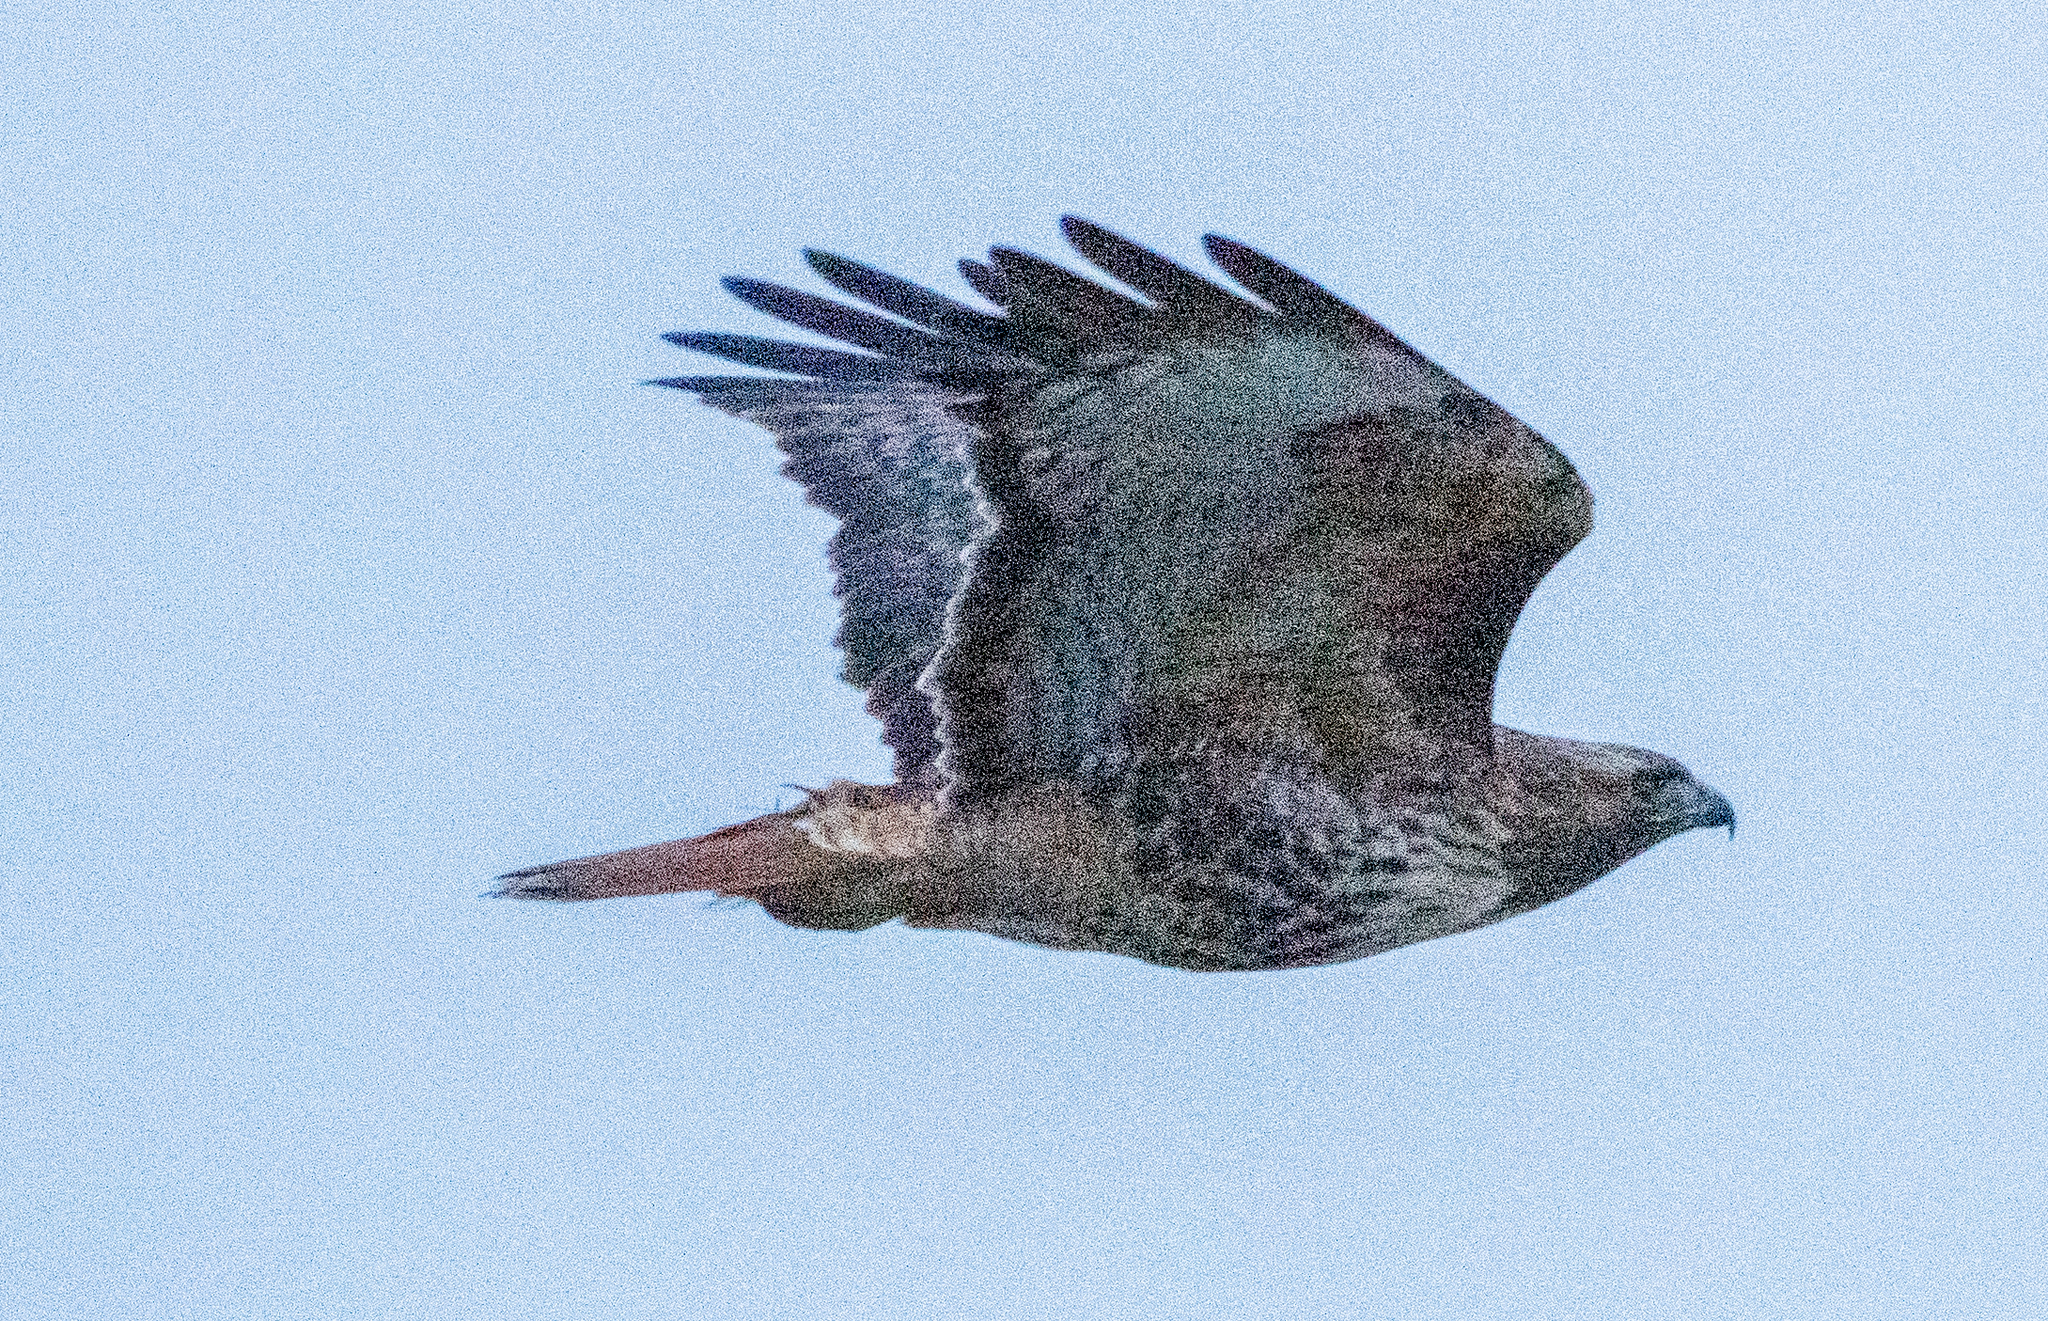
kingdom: Animalia
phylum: Chordata
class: Aves
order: Accipitriformes
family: Accipitridae
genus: Buteo
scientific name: Buteo jamaicensis
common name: Red-tailed hawk
